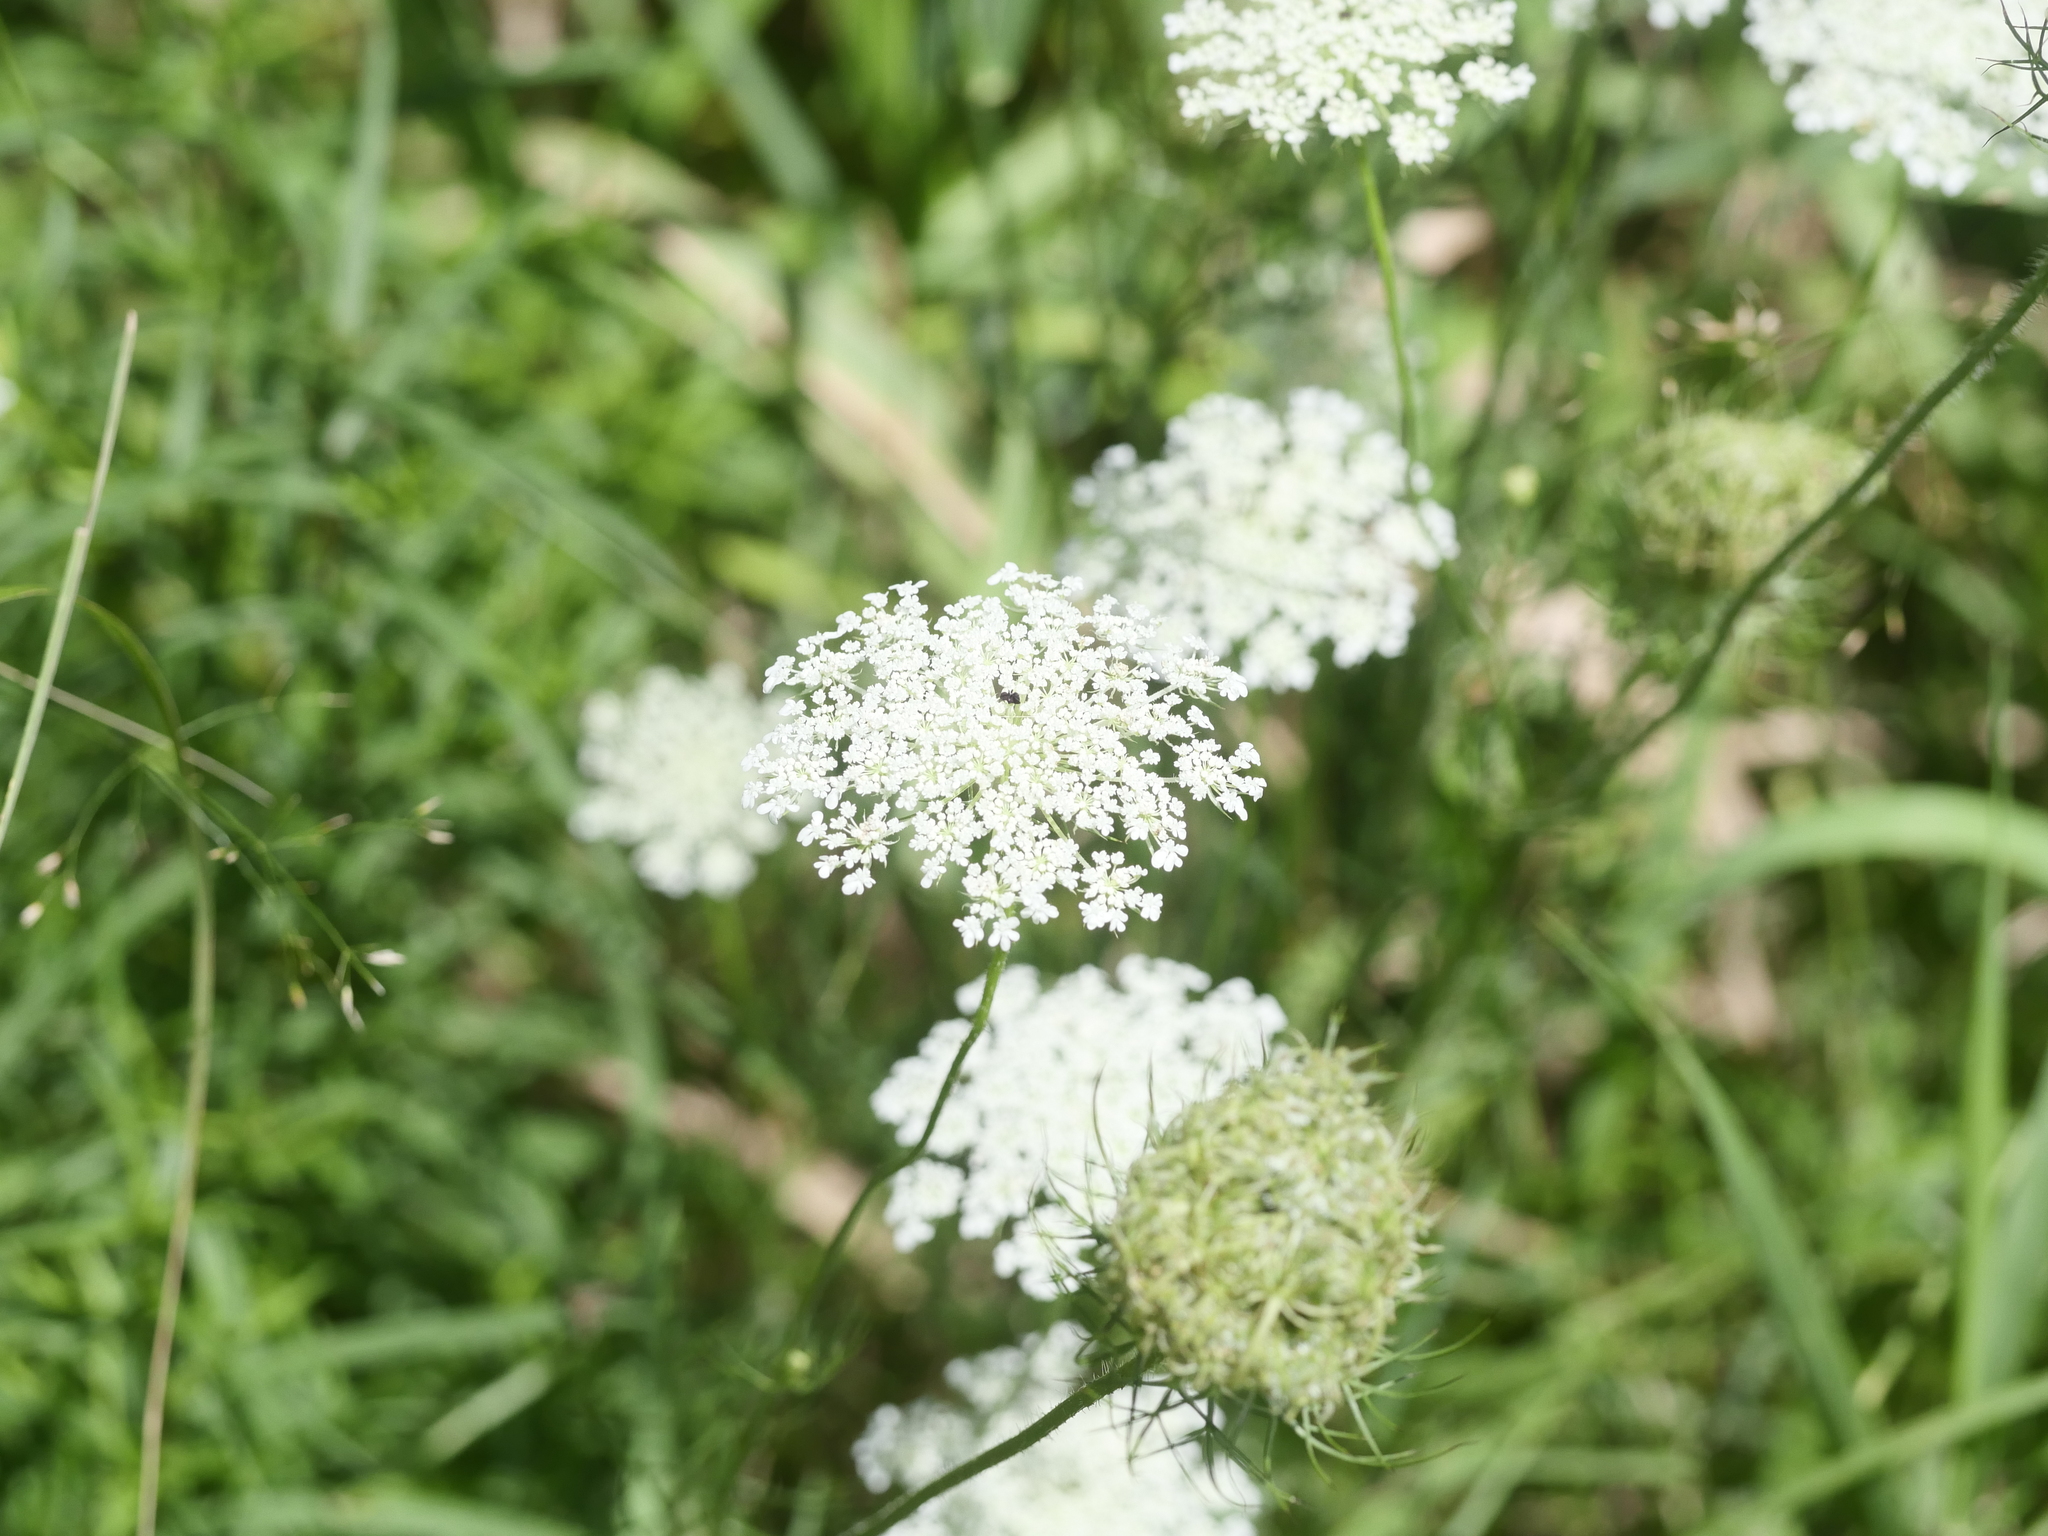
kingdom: Plantae
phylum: Tracheophyta
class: Magnoliopsida
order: Apiales
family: Apiaceae
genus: Daucus
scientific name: Daucus carota
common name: Wild carrot
